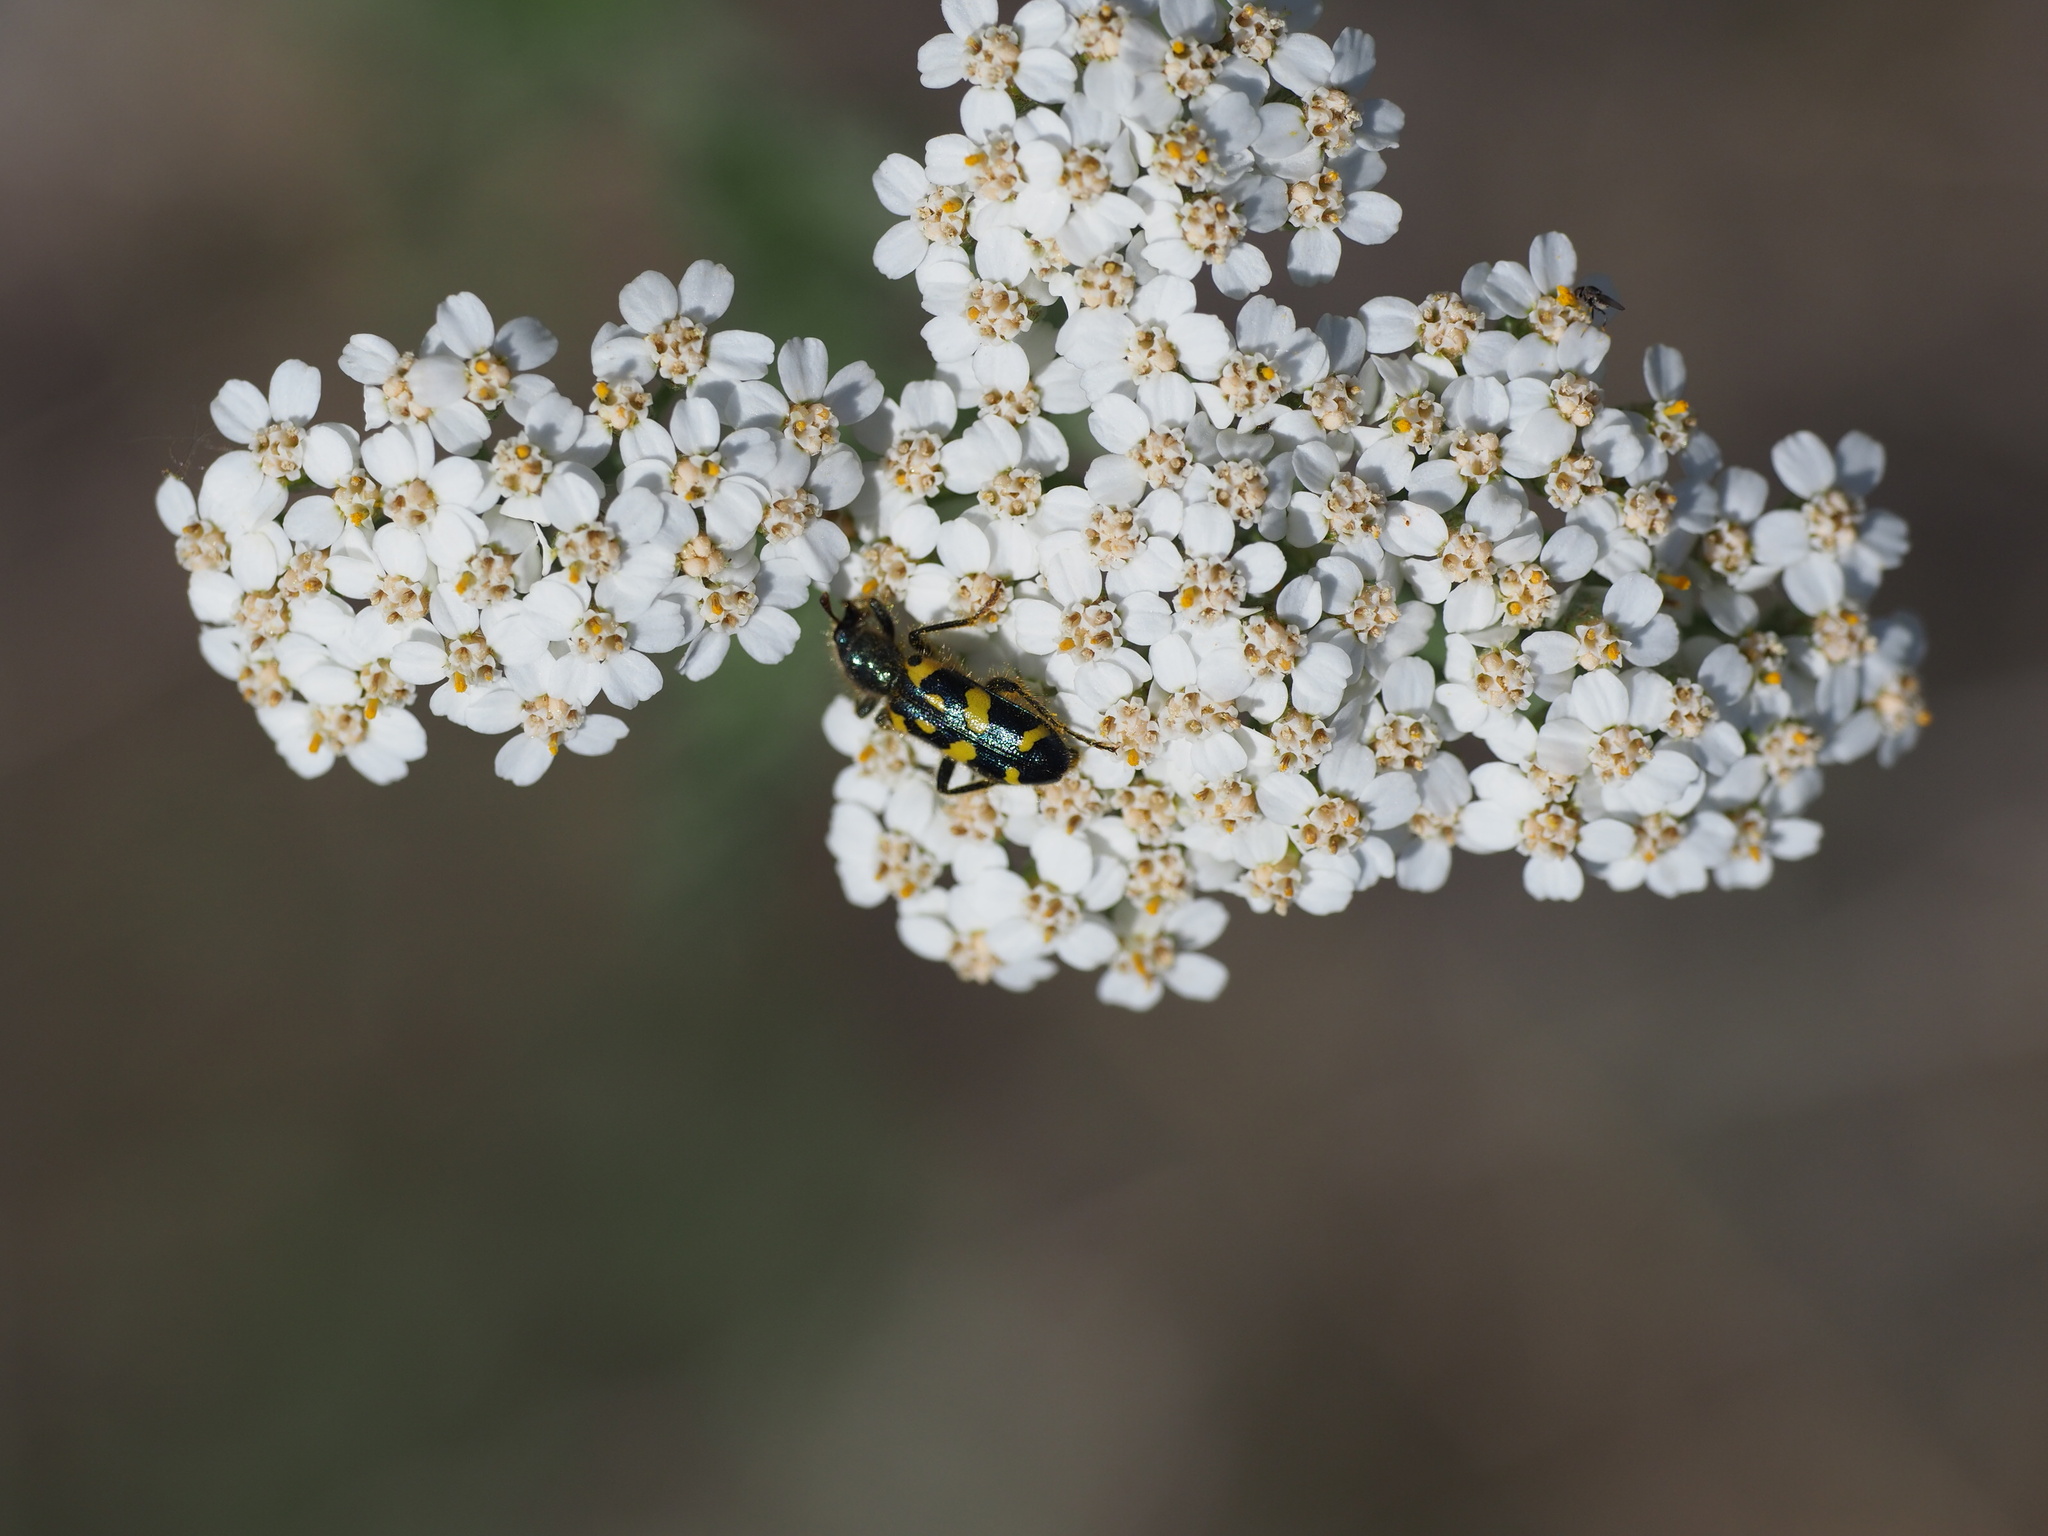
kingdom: Animalia
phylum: Arthropoda
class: Insecta
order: Coleoptera
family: Cleridae
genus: Trichodes
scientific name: Trichodes ornatus
